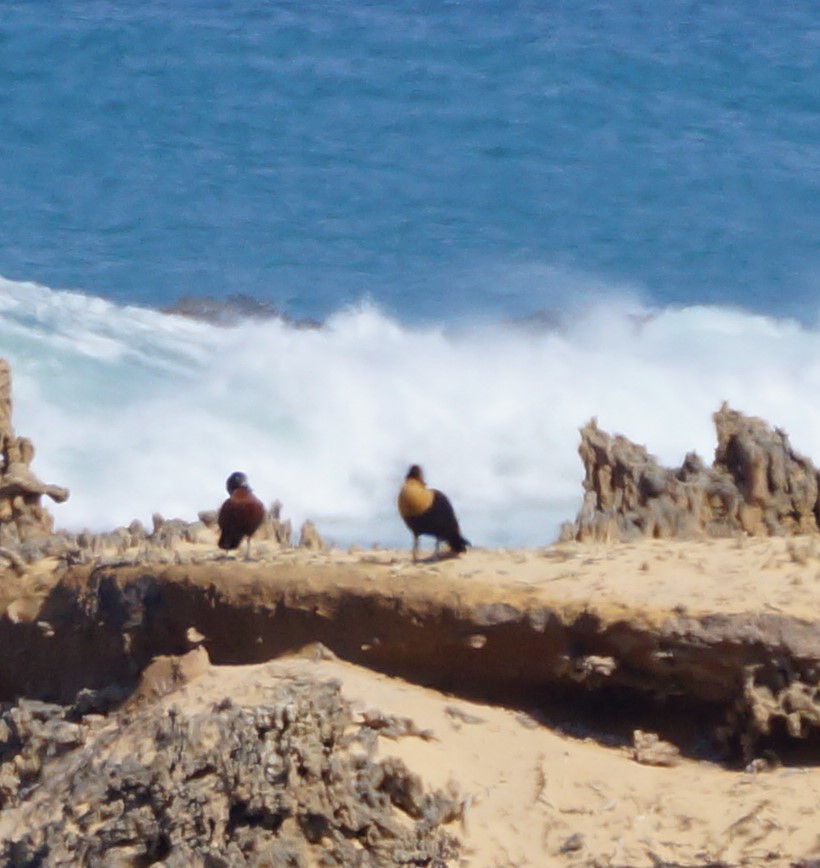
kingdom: Animalia
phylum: Chordata
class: Aves
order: Anseriformes
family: Anatidae
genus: Tadorna
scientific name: Tadorna tadornoides
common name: Australian shelduck
